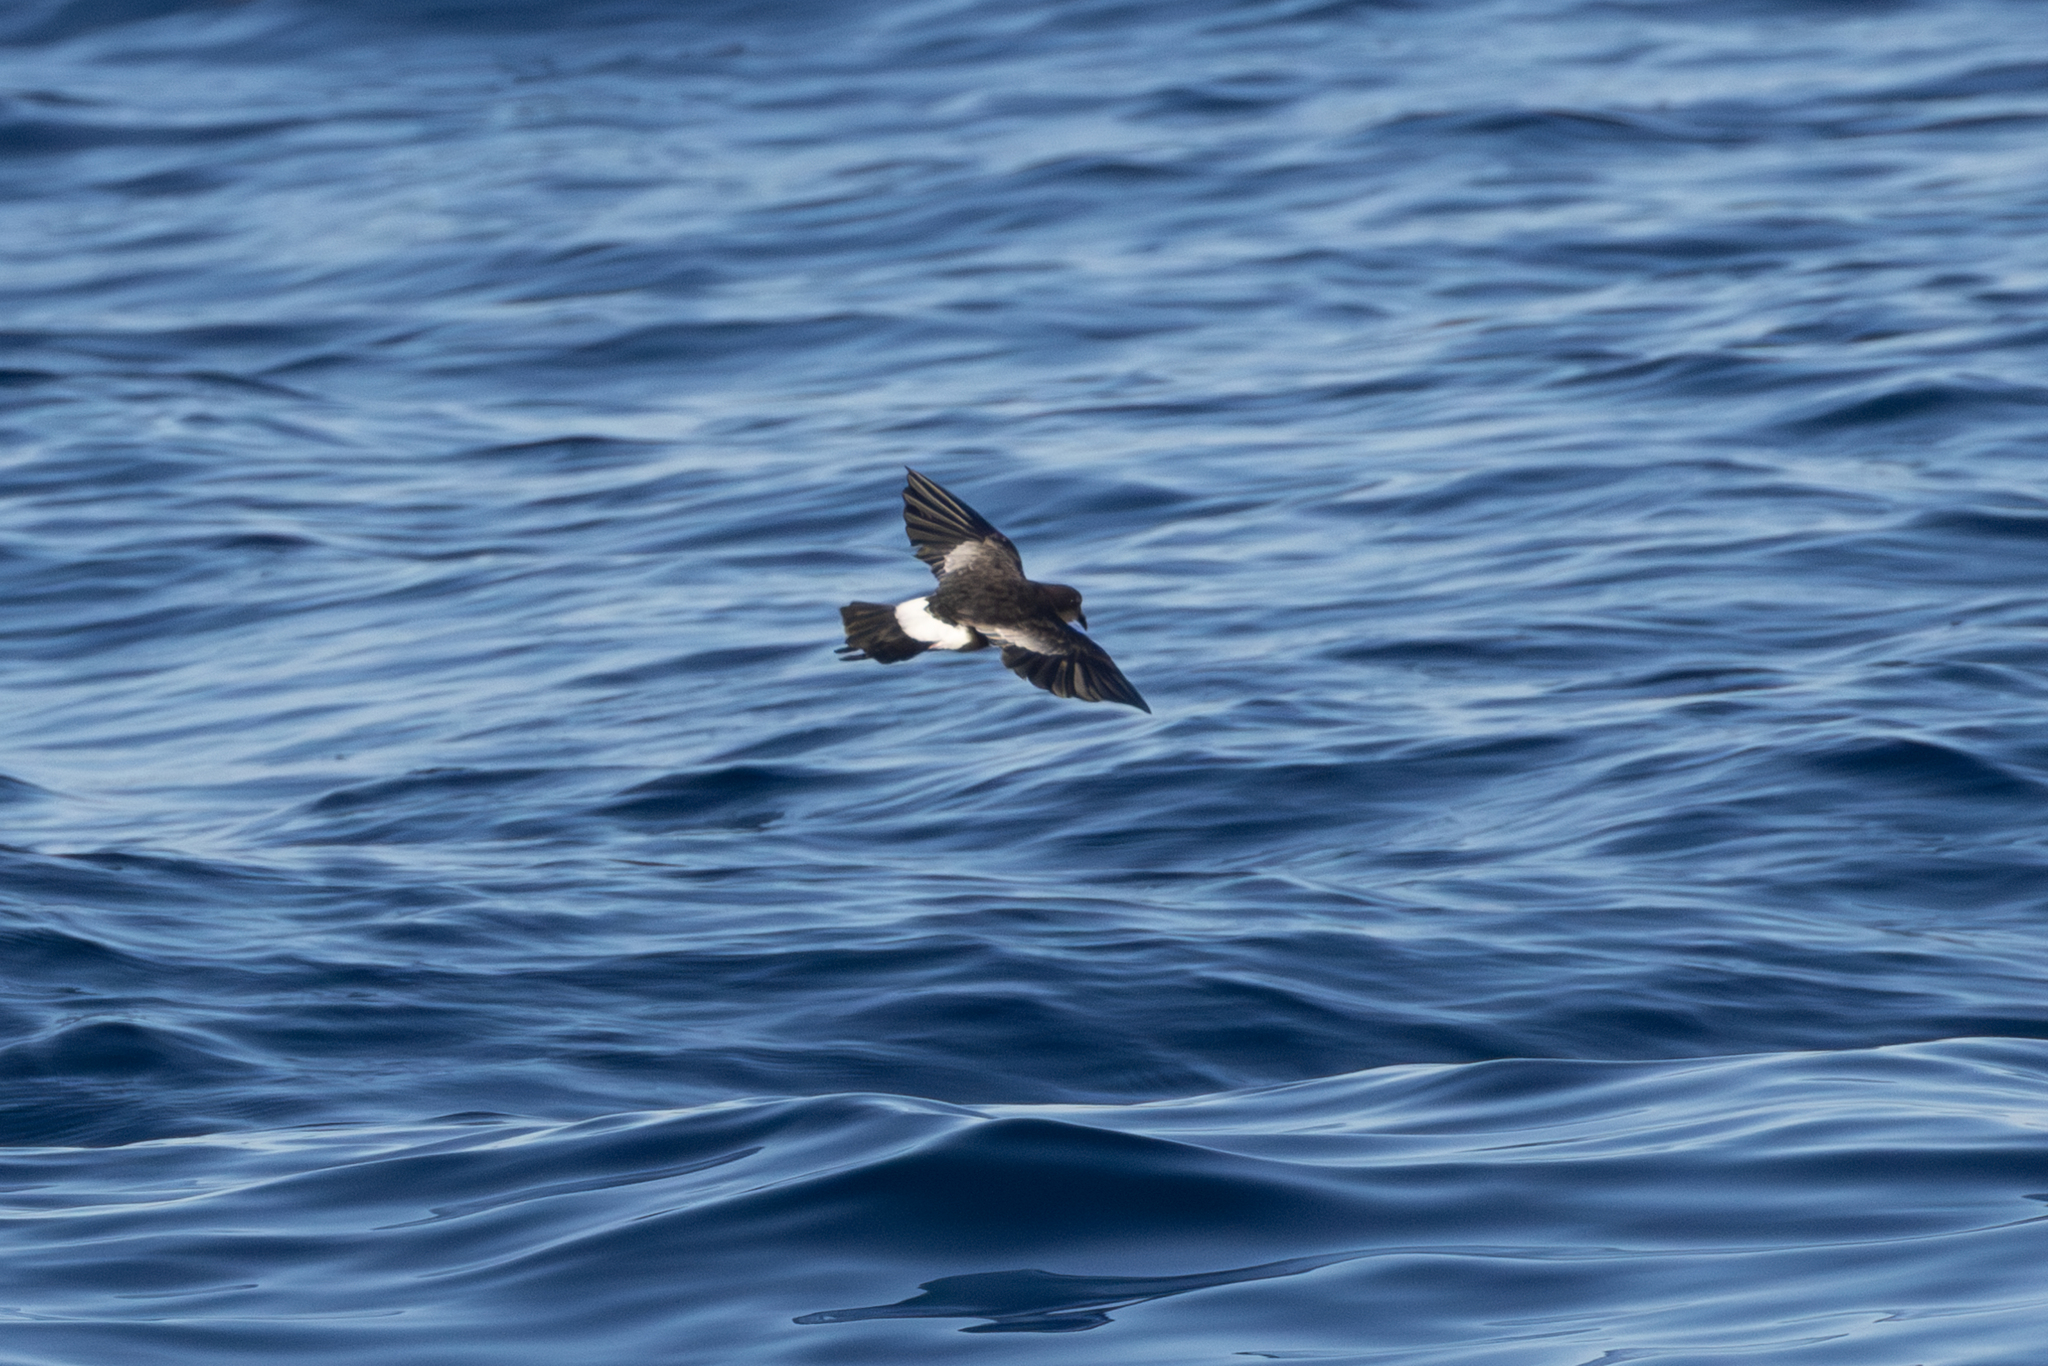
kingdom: Animalia
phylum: Chordata
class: Aves
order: Procellariiformes
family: Hydrobatidae
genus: Oceanites
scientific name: Oceanites oceanicus
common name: Wilson's storm petrel
